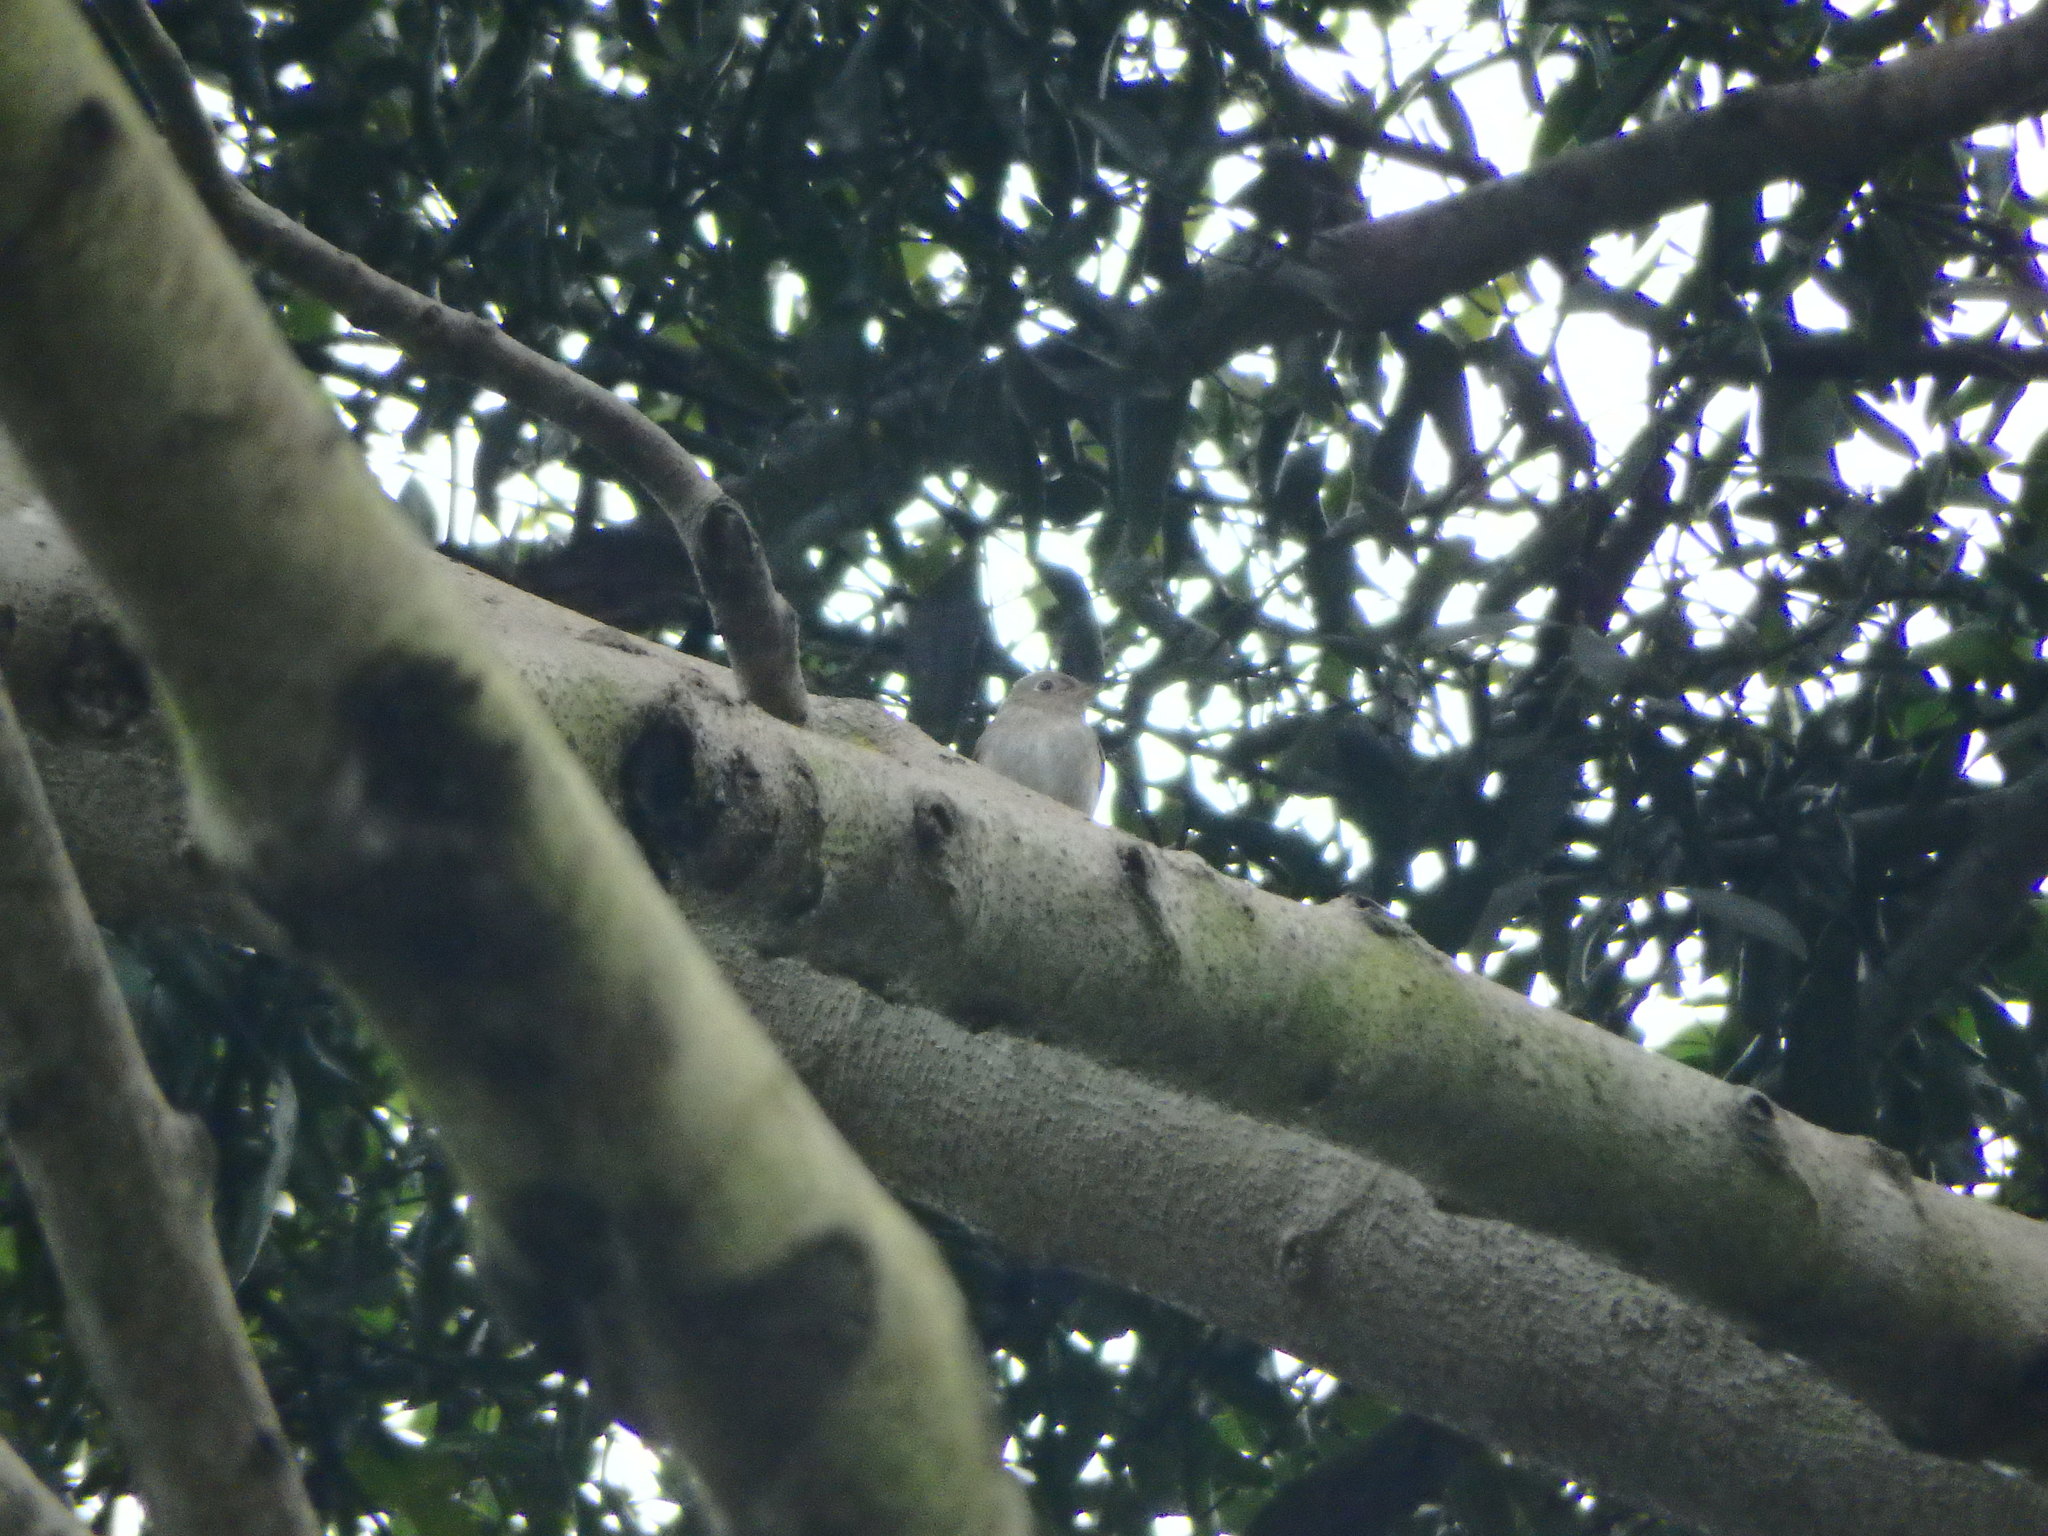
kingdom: Animalia
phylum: Chordata
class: Aves
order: Passeriformes
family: Muscicapidae
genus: Muscicapa
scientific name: Muscicapa latirostris
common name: Asian brown flycatcher
